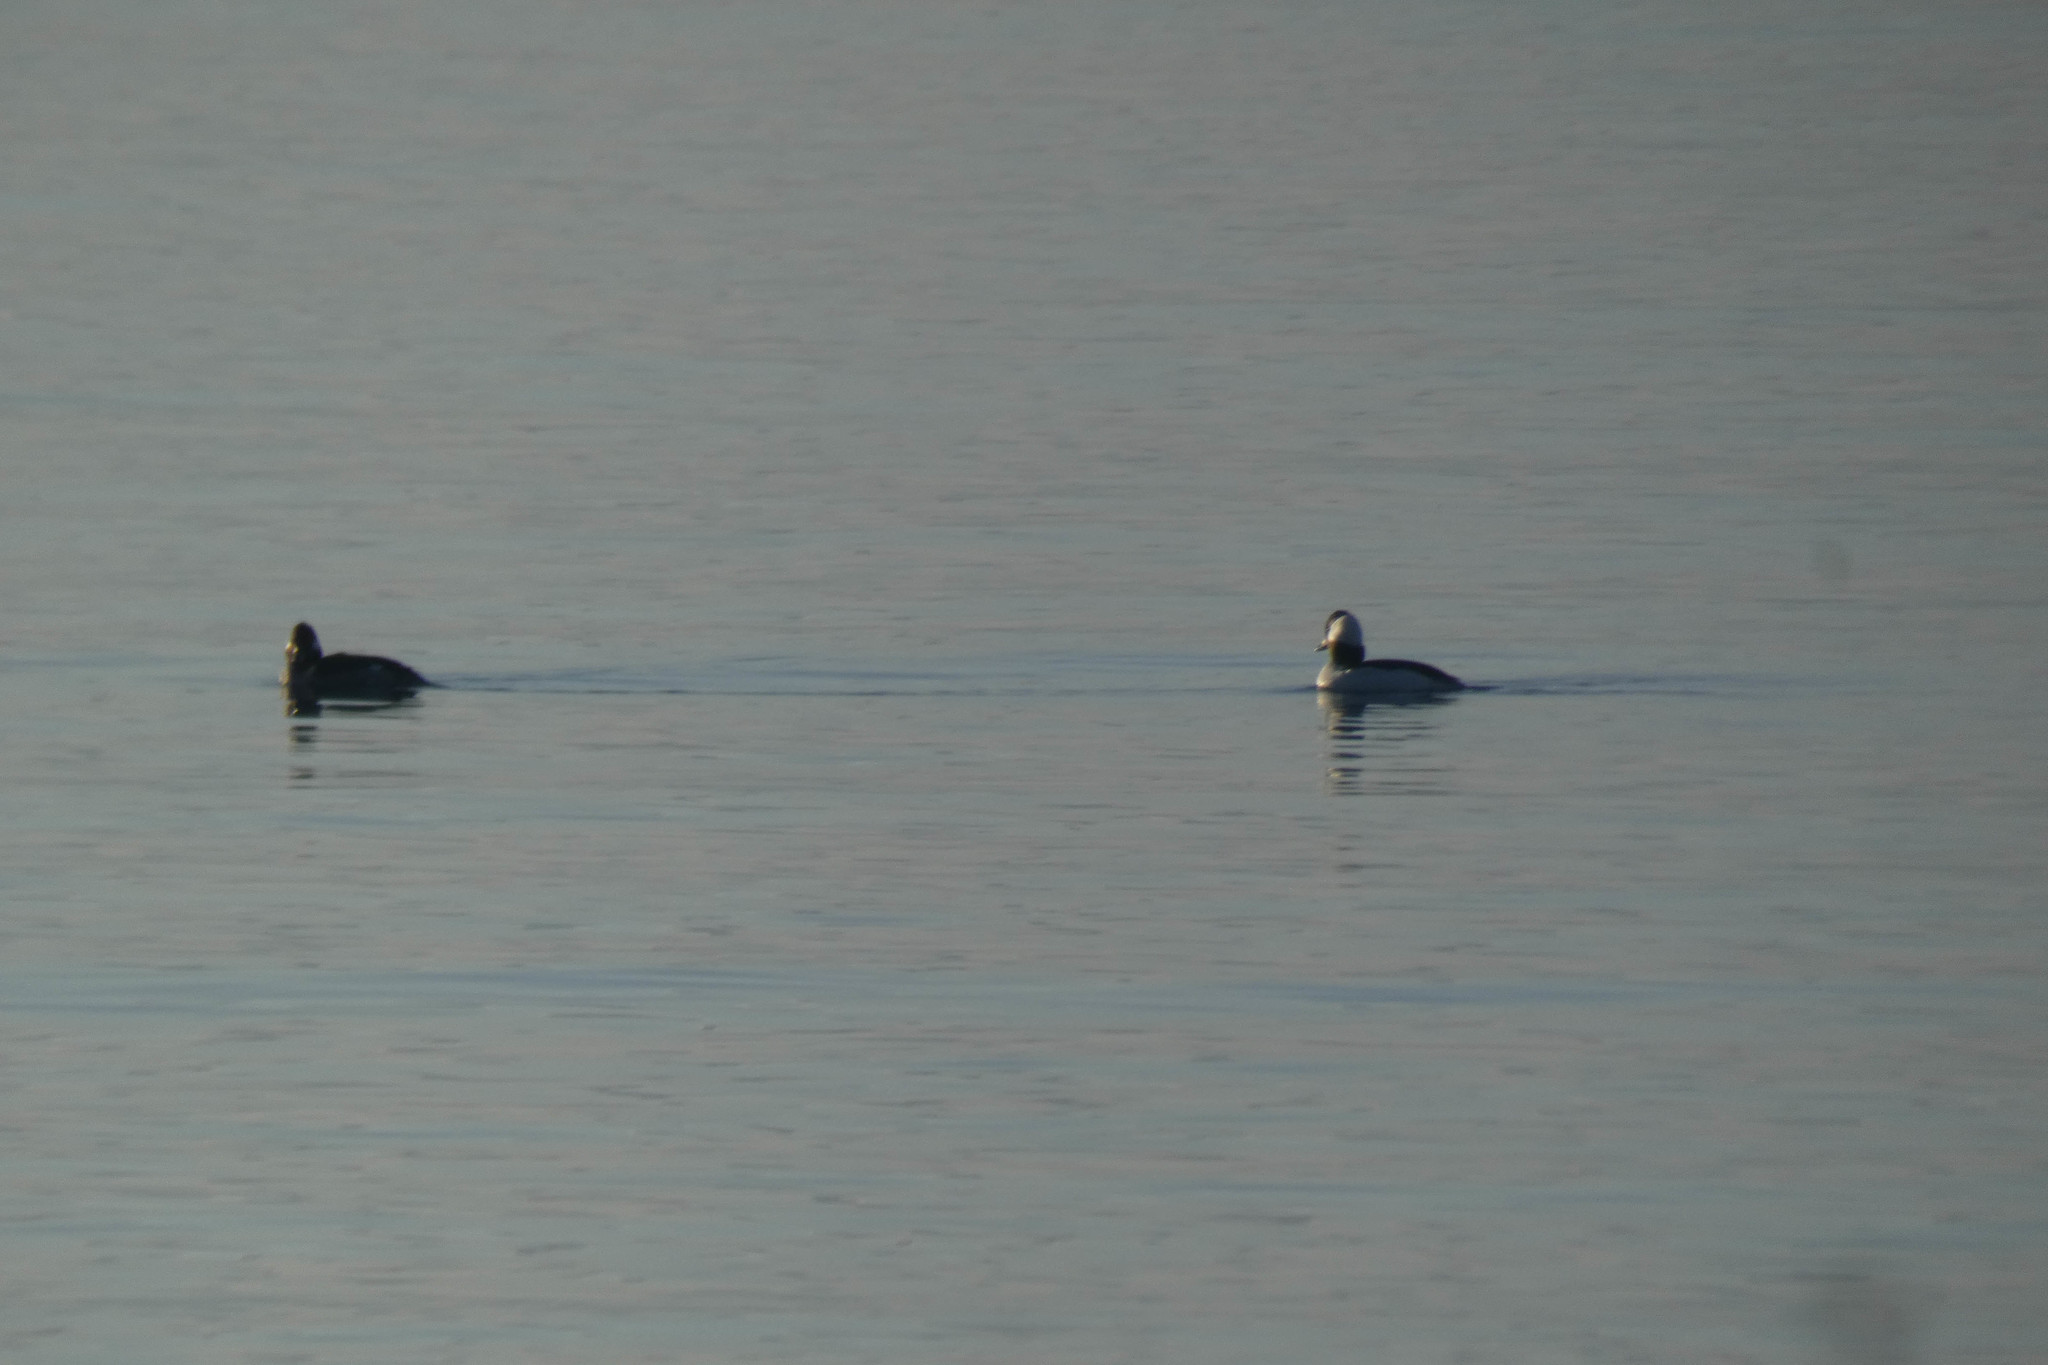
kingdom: Animalia
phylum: Chordata
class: Aves
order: Anseriformes
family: Anatidae
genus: Bucephala
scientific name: Bucephala albeola
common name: Bufflehead
